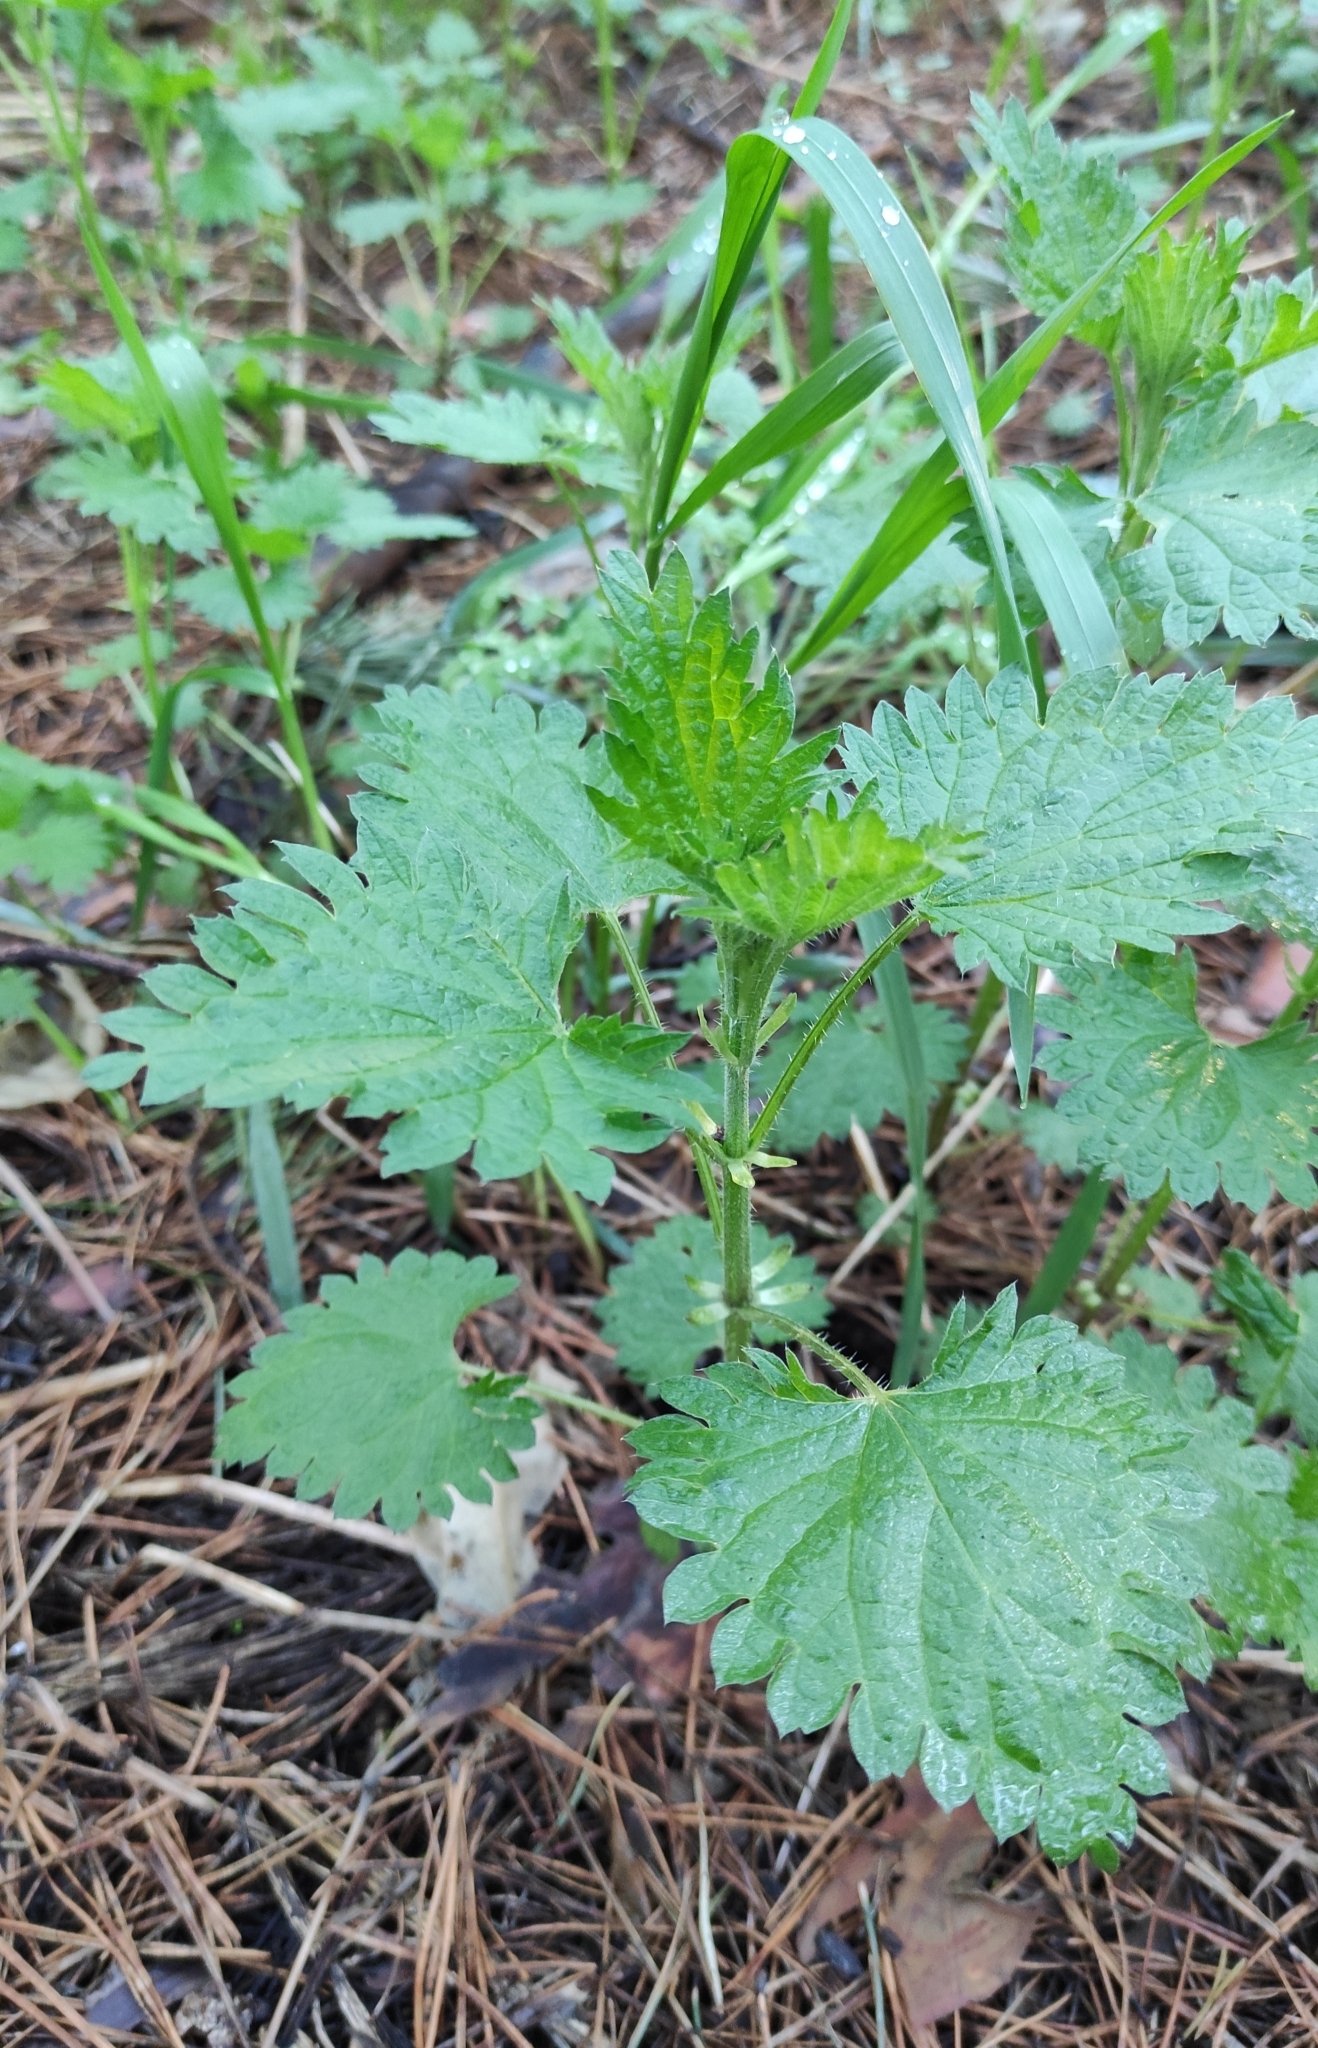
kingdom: Plantae
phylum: Tracheophyta
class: Magnoliopsida
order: Rosales
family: Urticaceae
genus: Urtica
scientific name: Urtica dioica
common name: Common nettle
